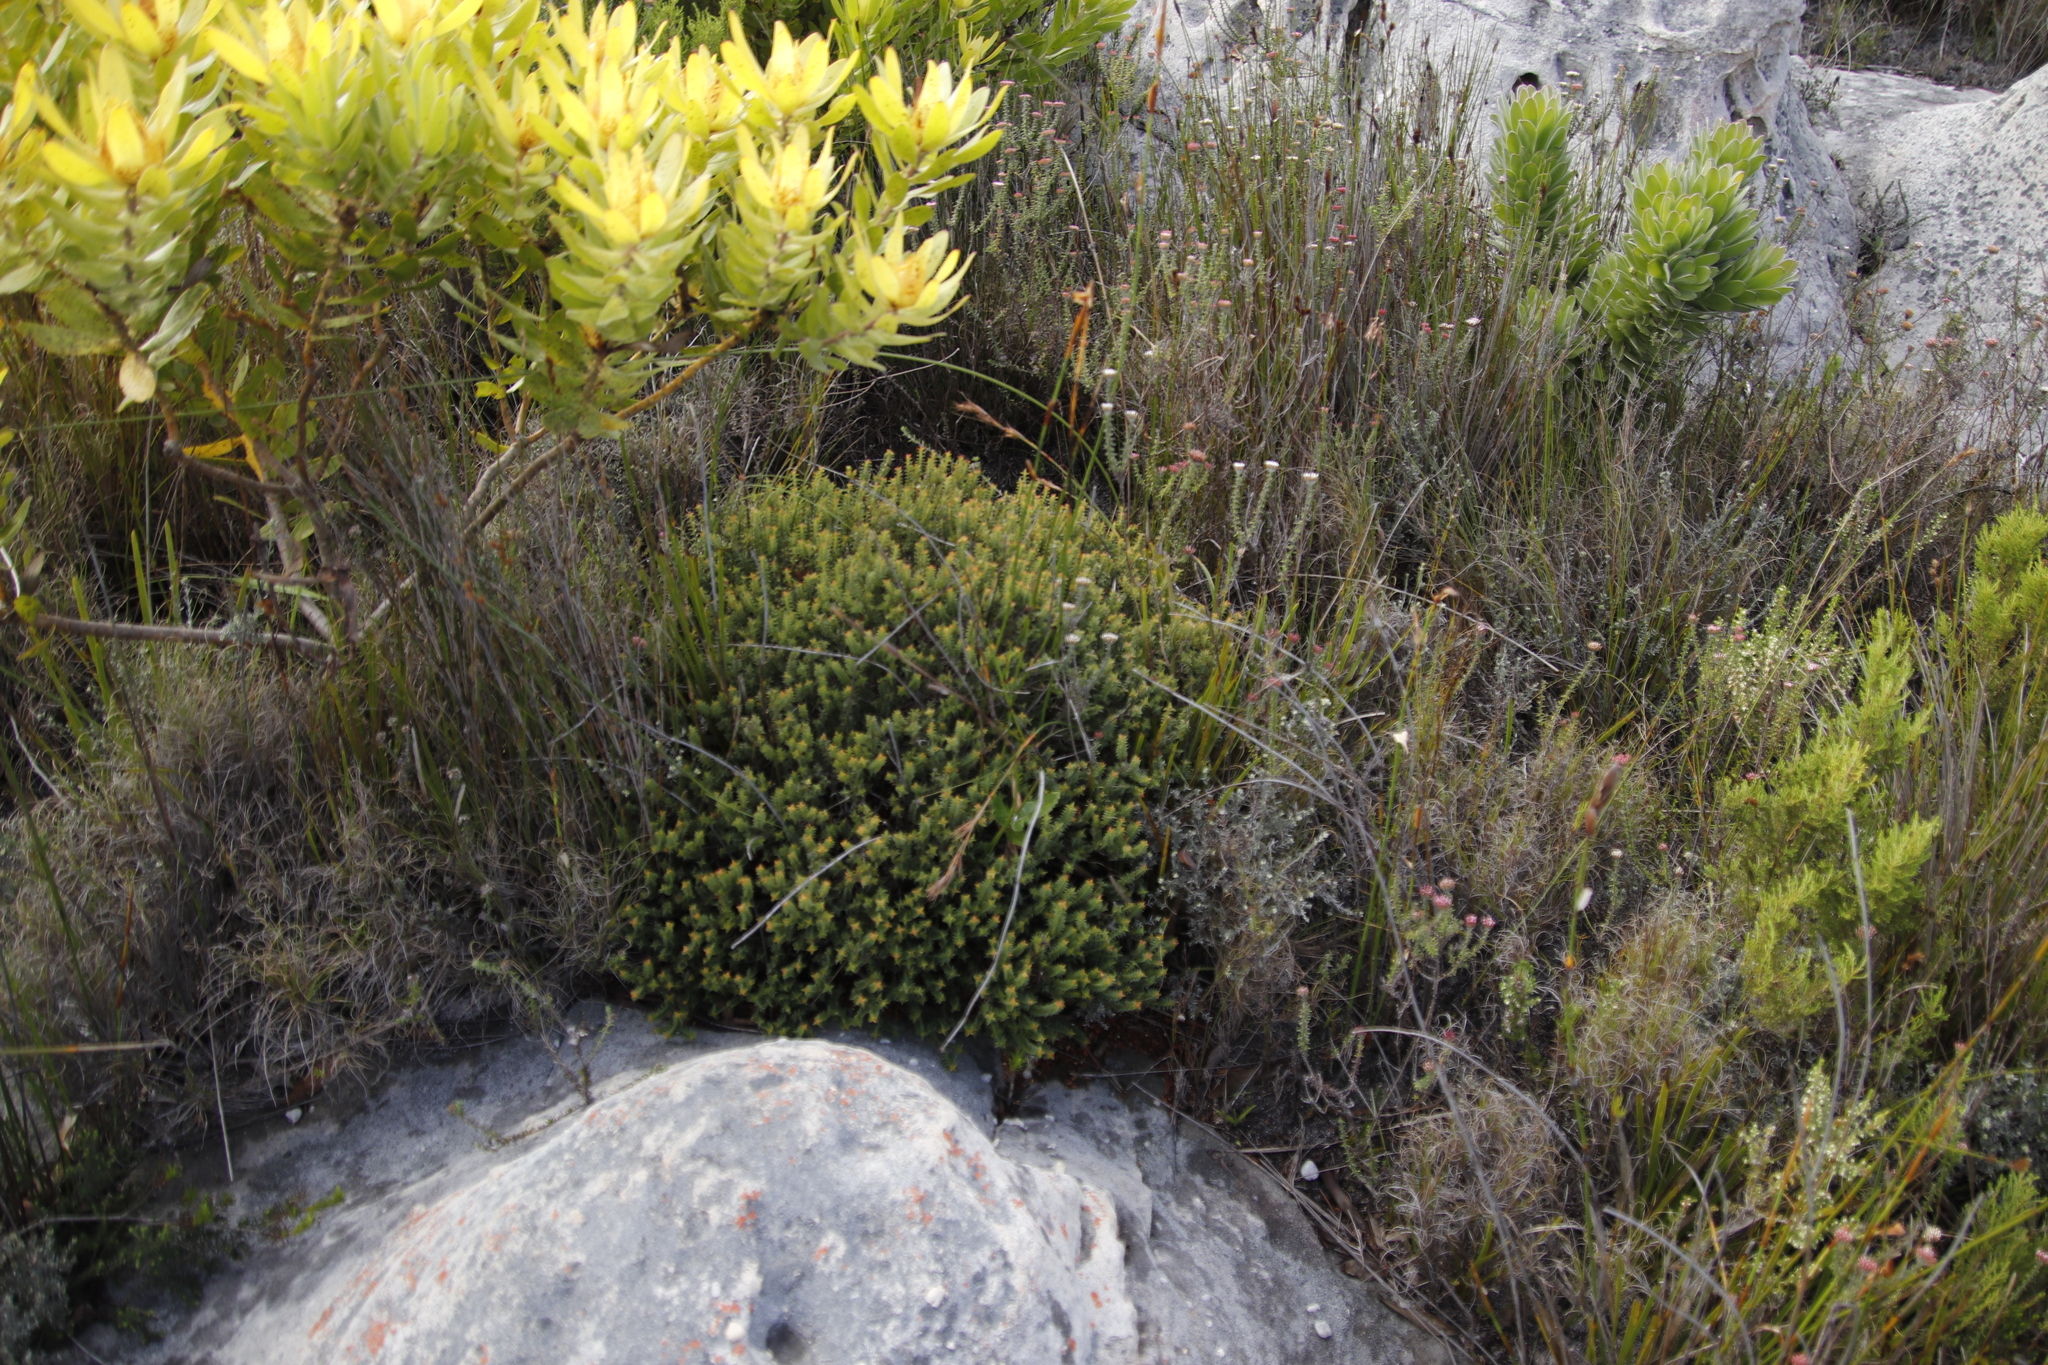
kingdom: Plantae
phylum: Tracheophyta
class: Magnoliopsida
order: Myrtales
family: Penaeaceae
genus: Penaea
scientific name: Penaea mucronata
